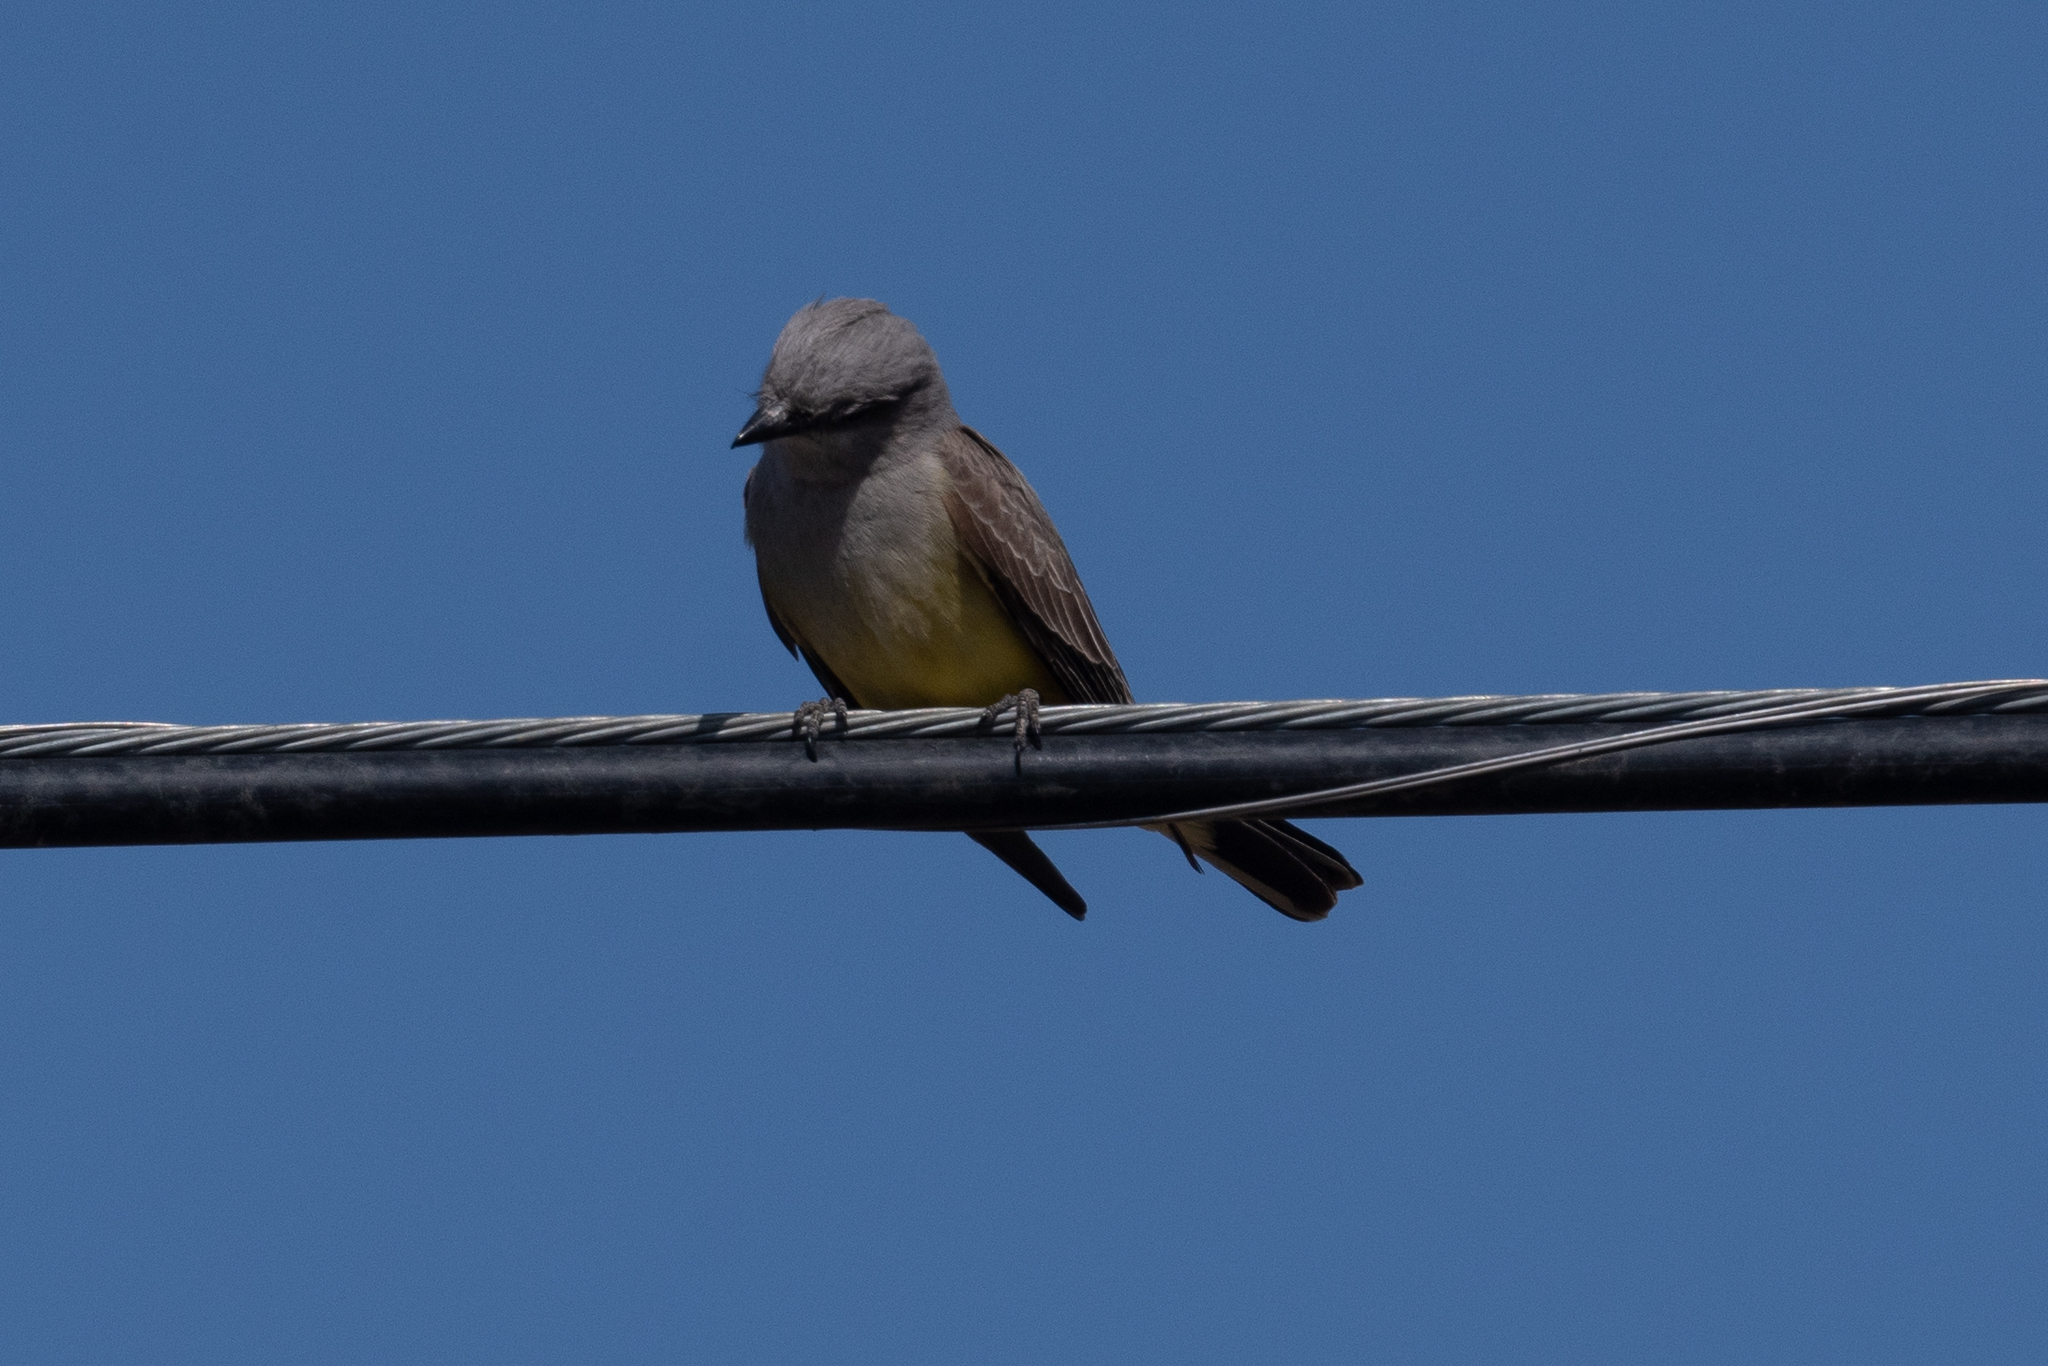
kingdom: Animalia
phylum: Chordata
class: Aves
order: Passeriformes
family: Tyrannidae
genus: Tyrannus
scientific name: Tyrannus verticalis
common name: Western kingbird
